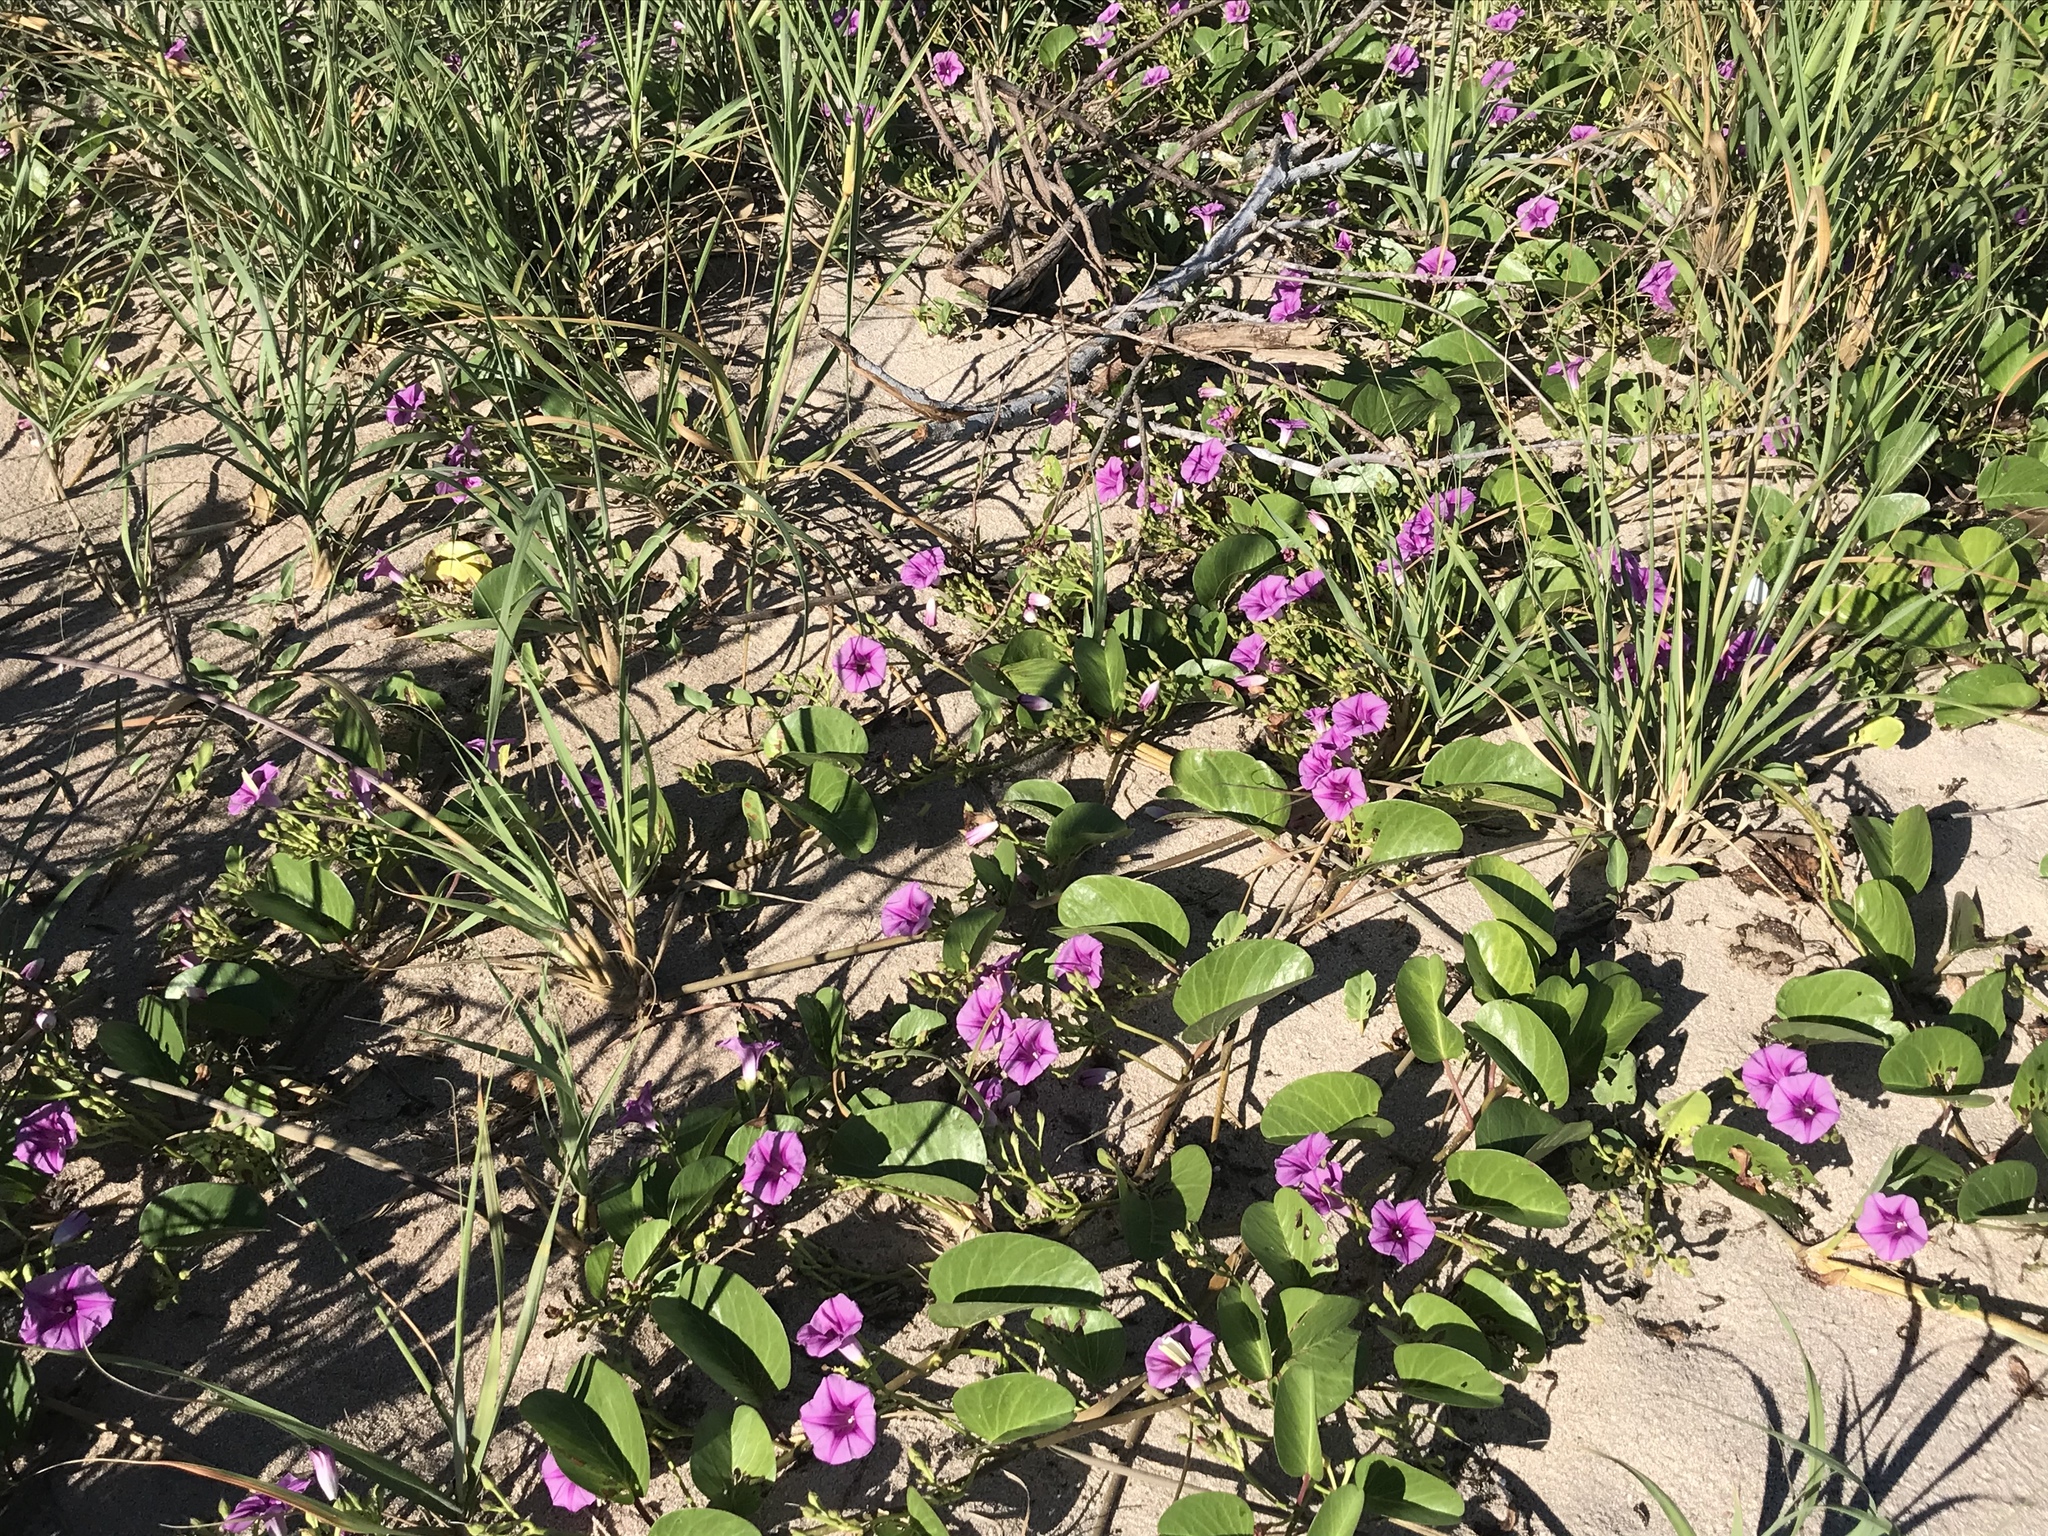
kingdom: Plantae
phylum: Tracheophyta
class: Magnoliopsida
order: Solanales
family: Convolvulaceae
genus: Ipomoea
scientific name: Ipomoea pes-caprae
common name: Beach morning glory
